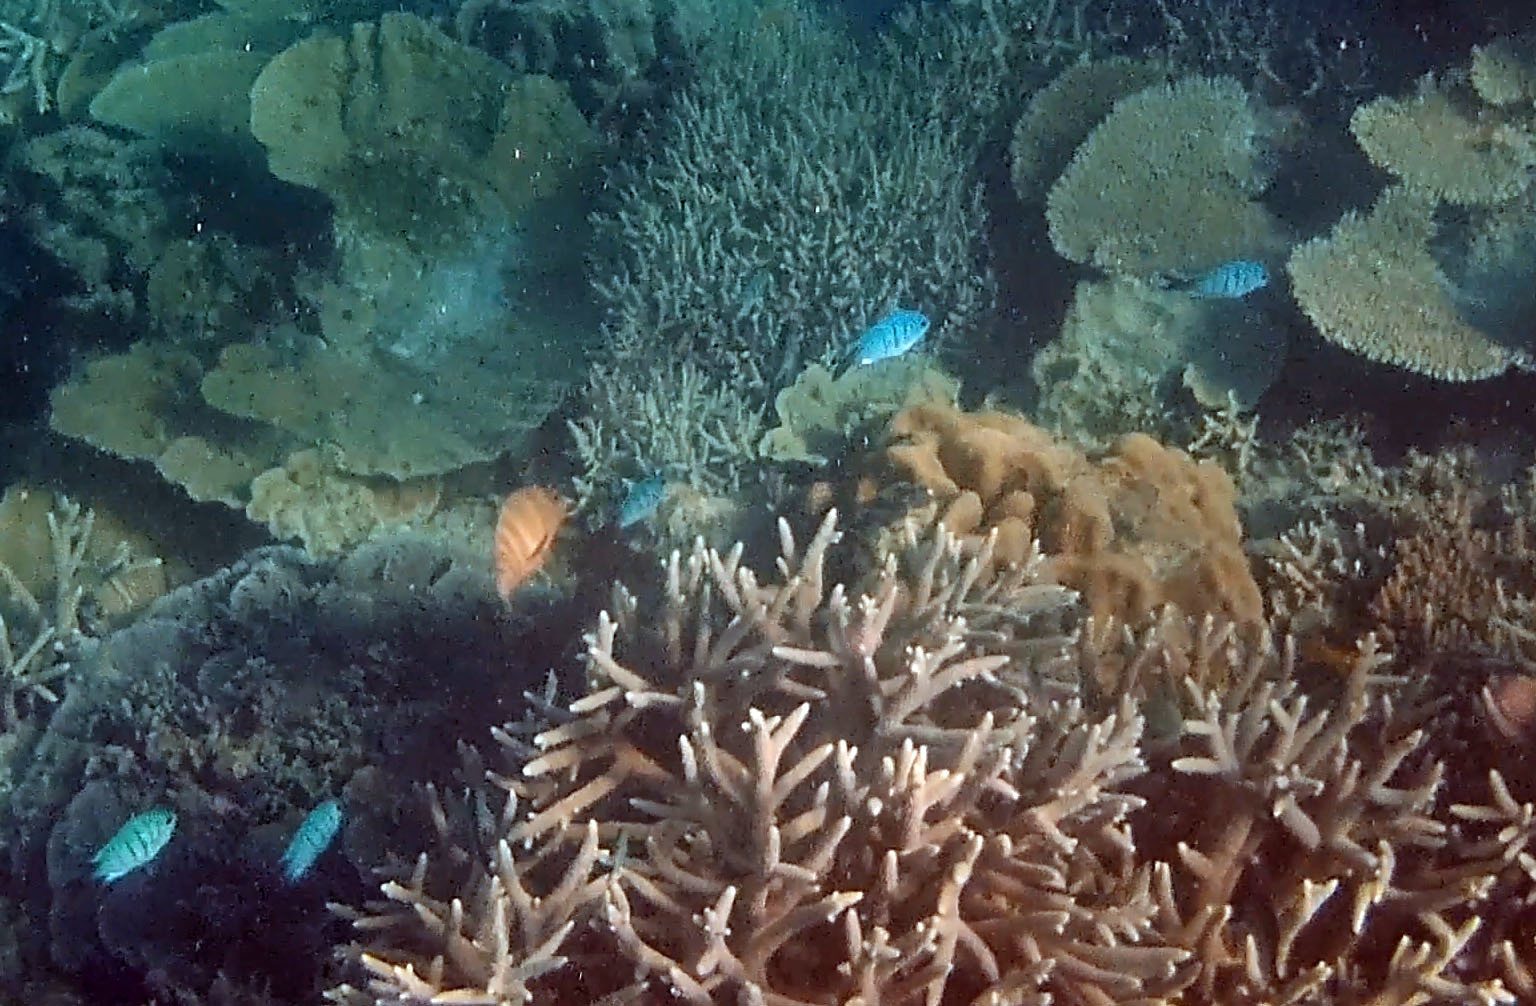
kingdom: Animalia
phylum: Chordata
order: Perciformes
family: Pomacentridae
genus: Abudefduf
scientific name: Abudefduf whitleyi
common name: Whitley's seargent
